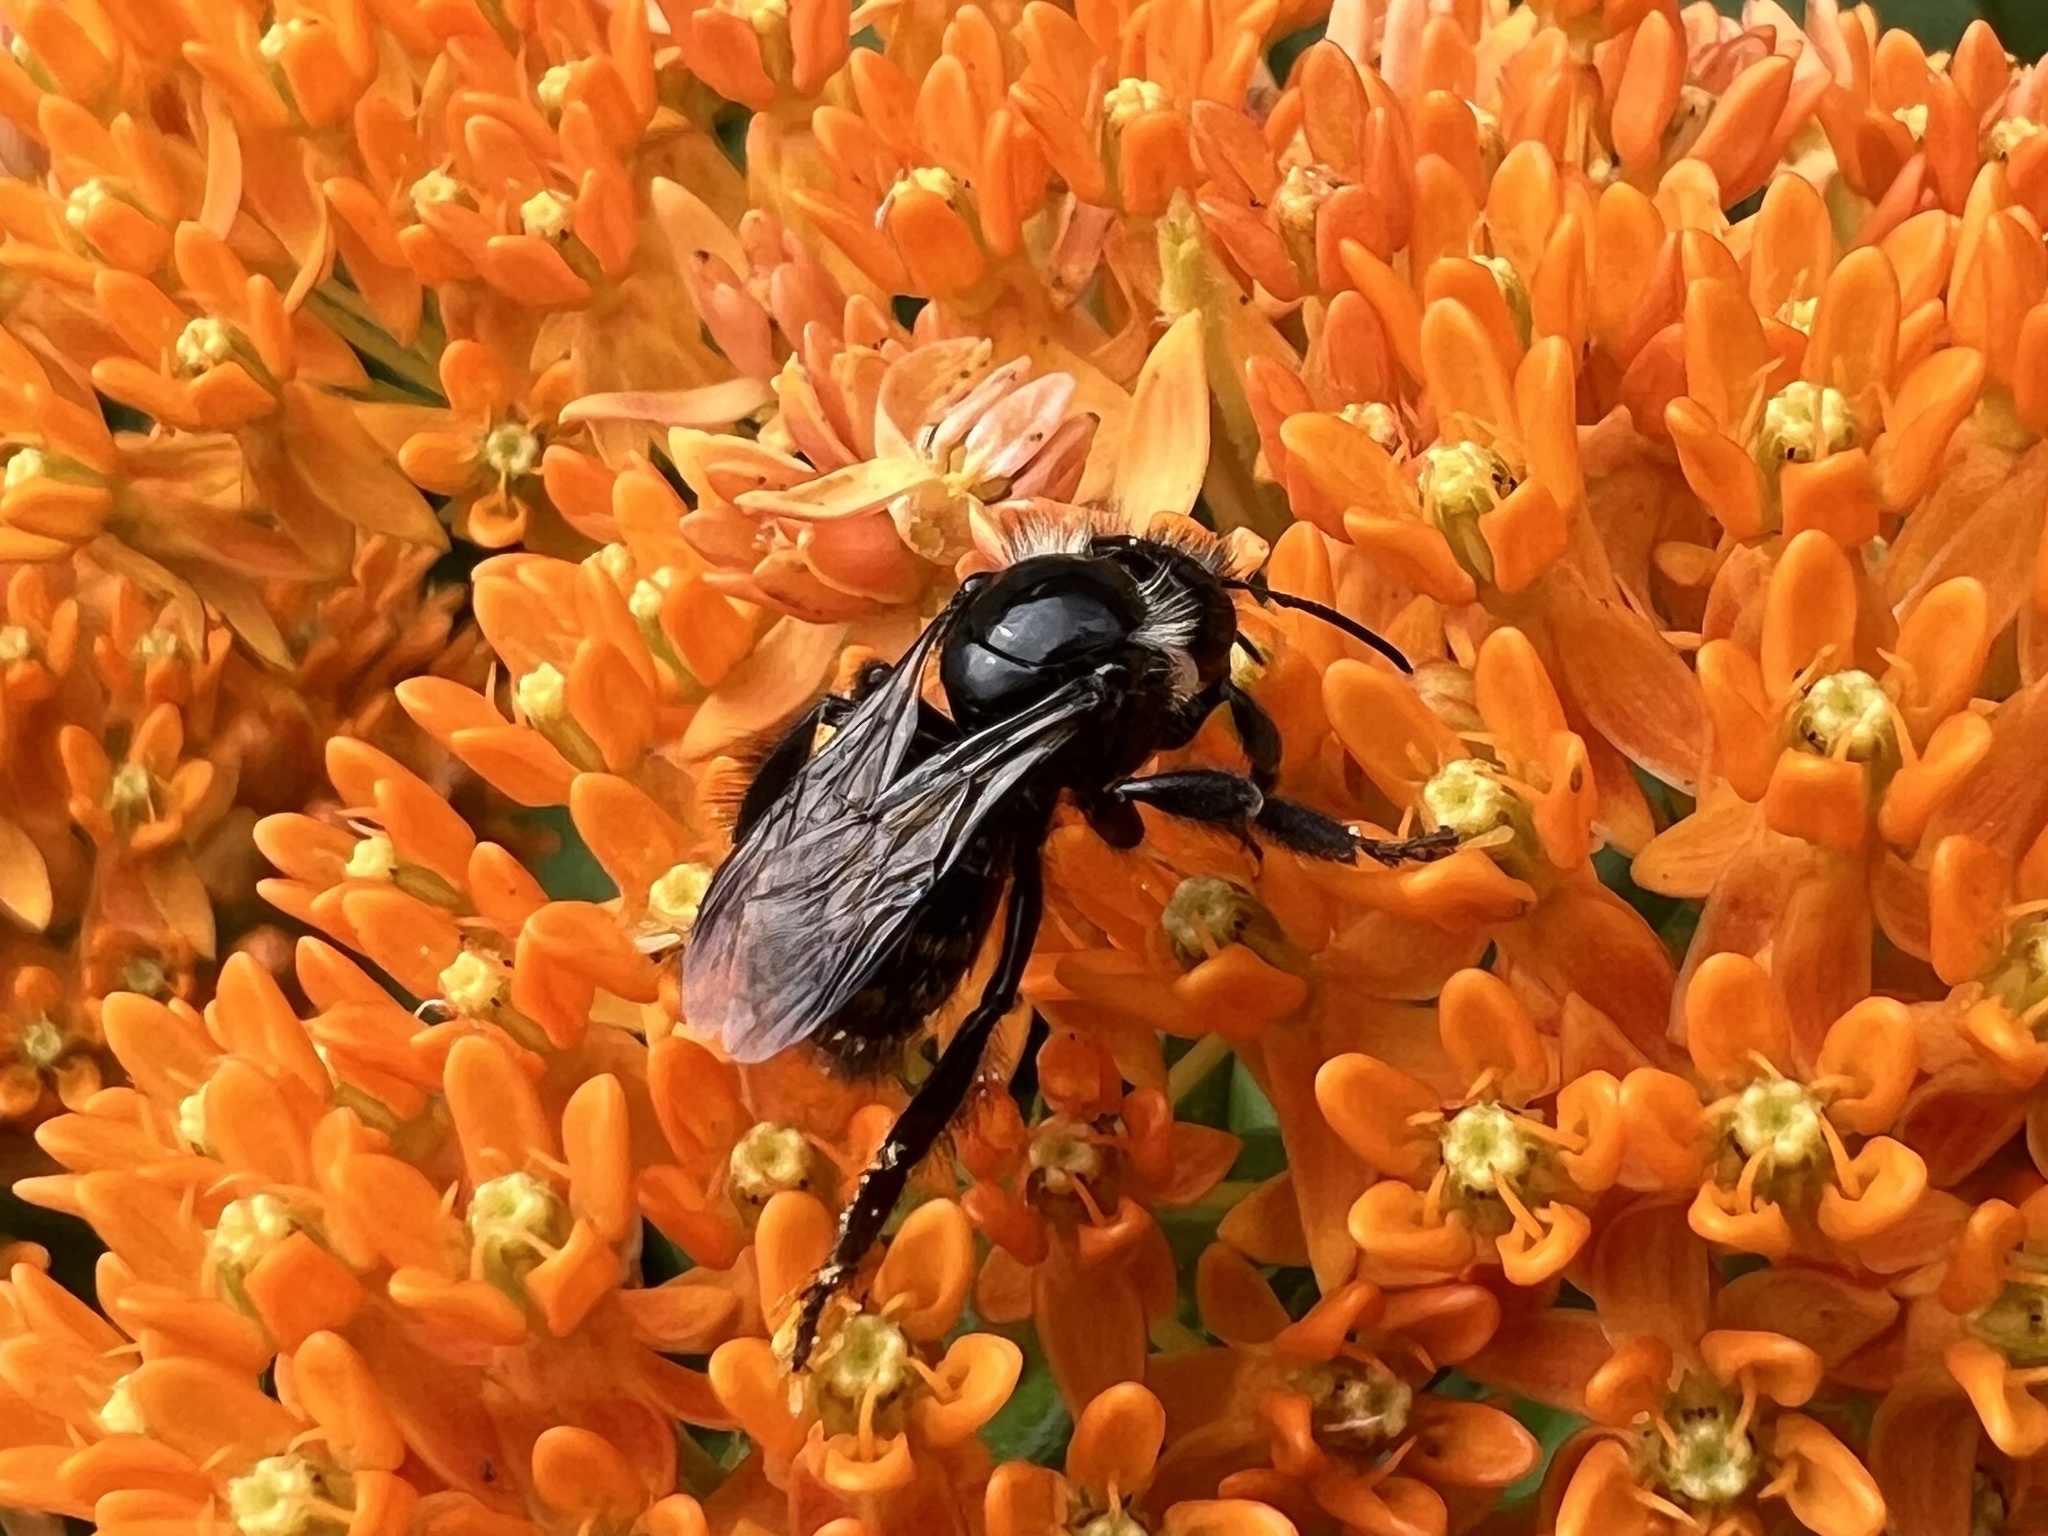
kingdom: Animalia
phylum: Arthropoda
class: Insecta
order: Hymenoptera
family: Apidae
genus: Bombus
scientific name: Bombus
